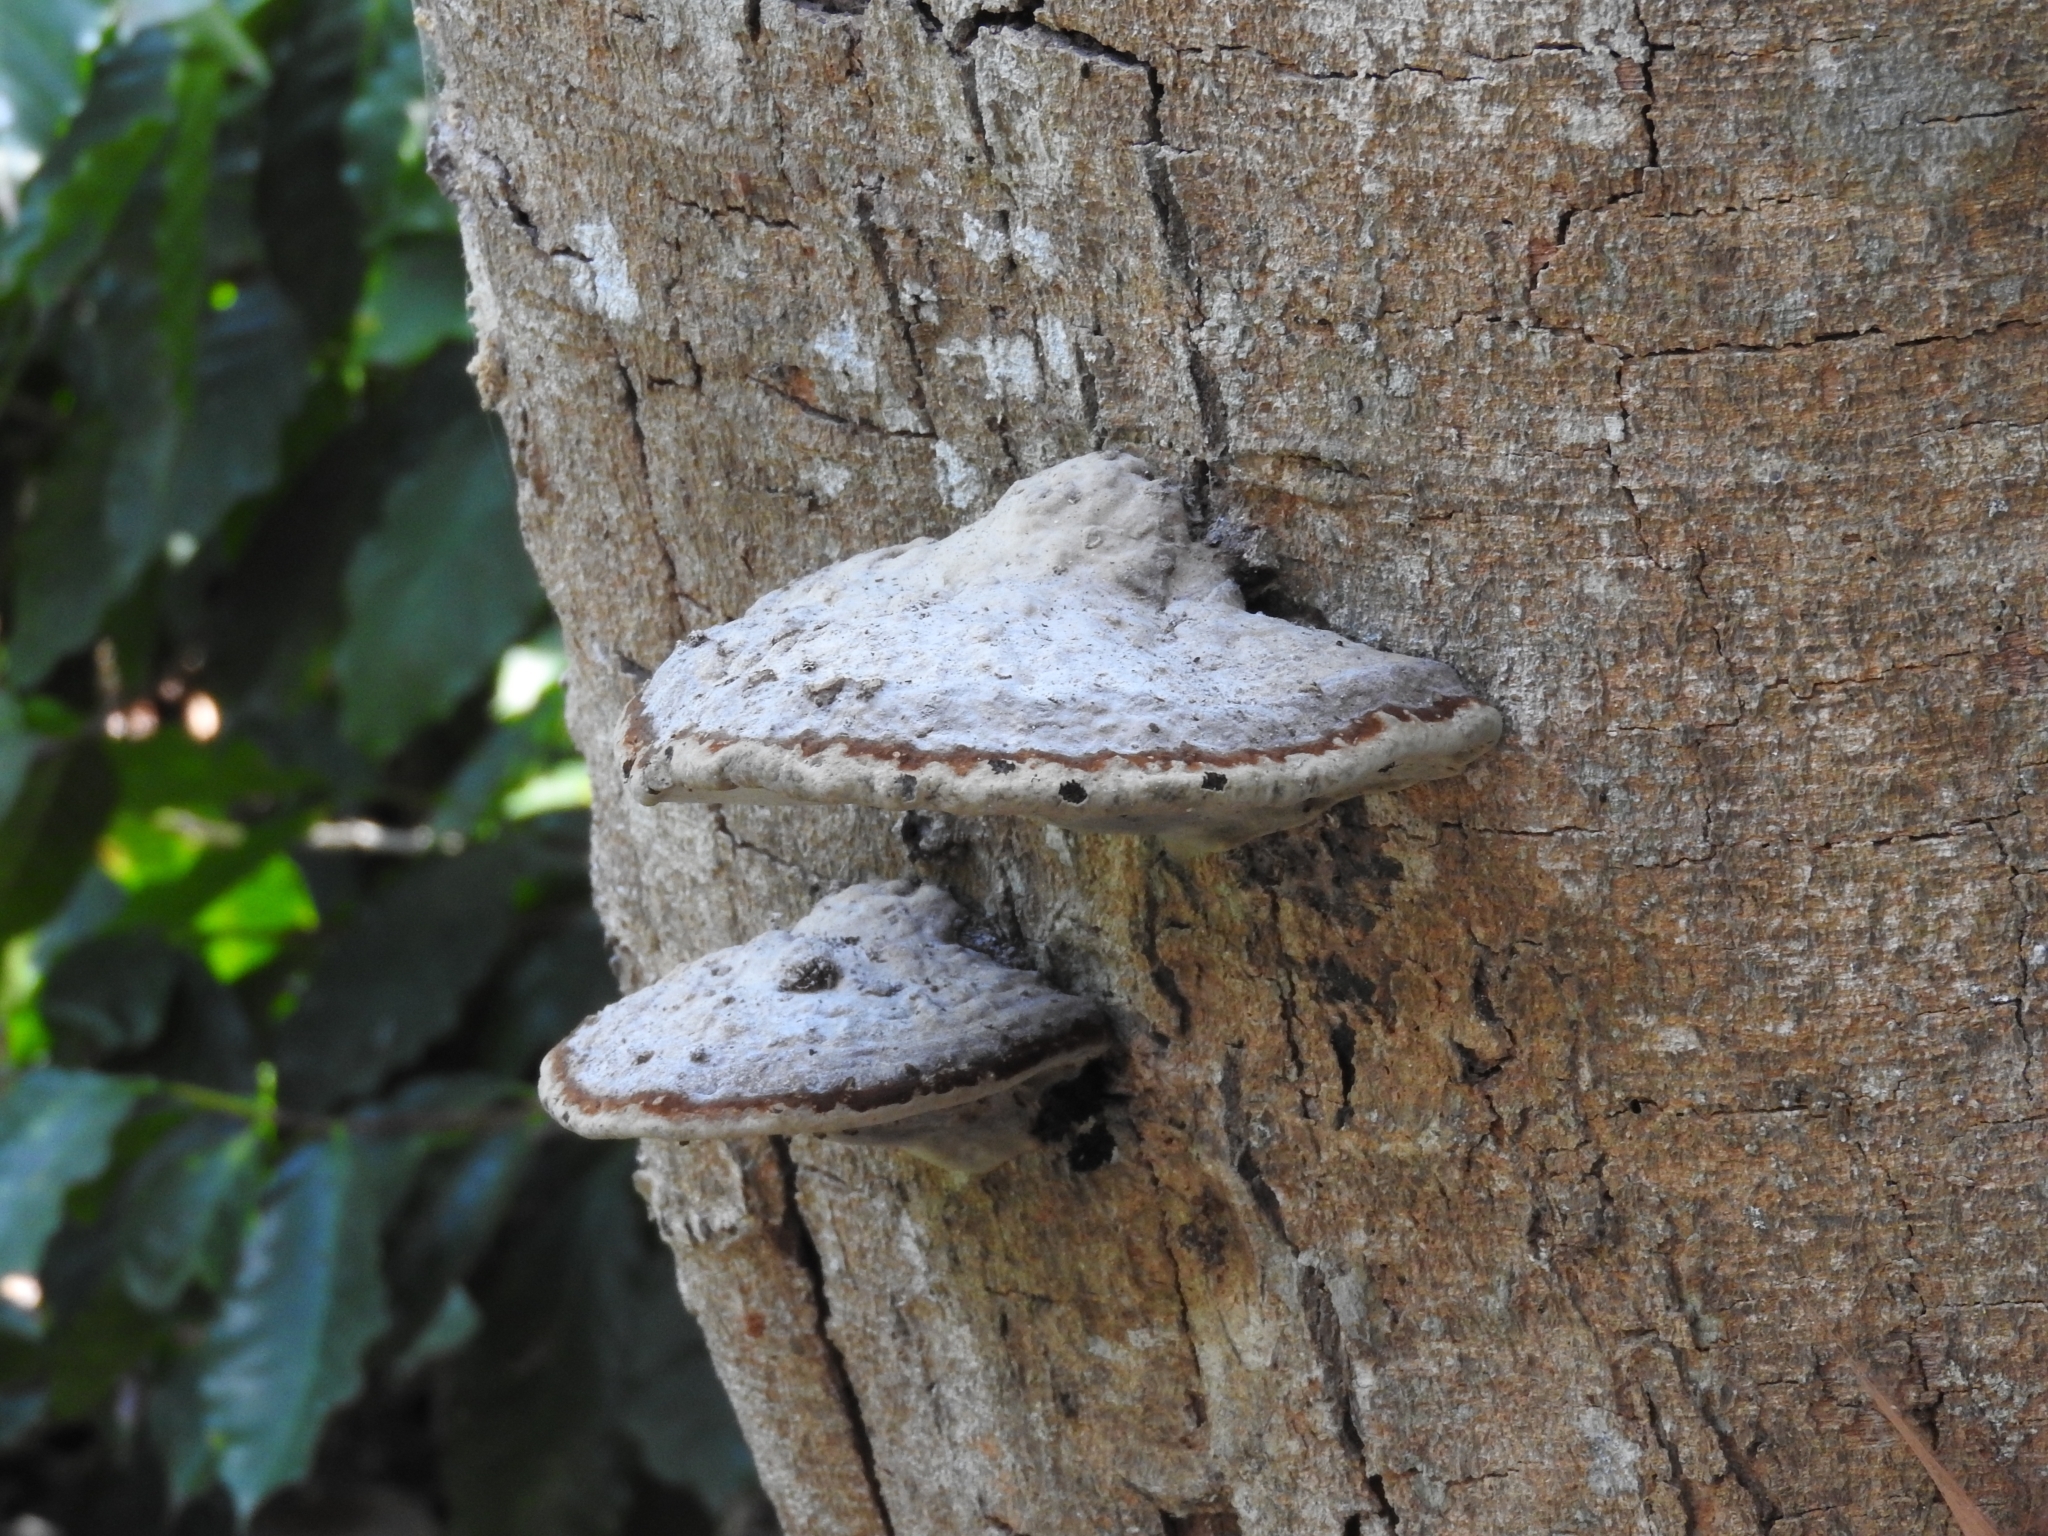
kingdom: Fungi
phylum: Basidiomycota
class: Agaricomycetes
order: Polyporales
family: Fomitopsidaceae
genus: Fomitopsis
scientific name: Fomitopsis
